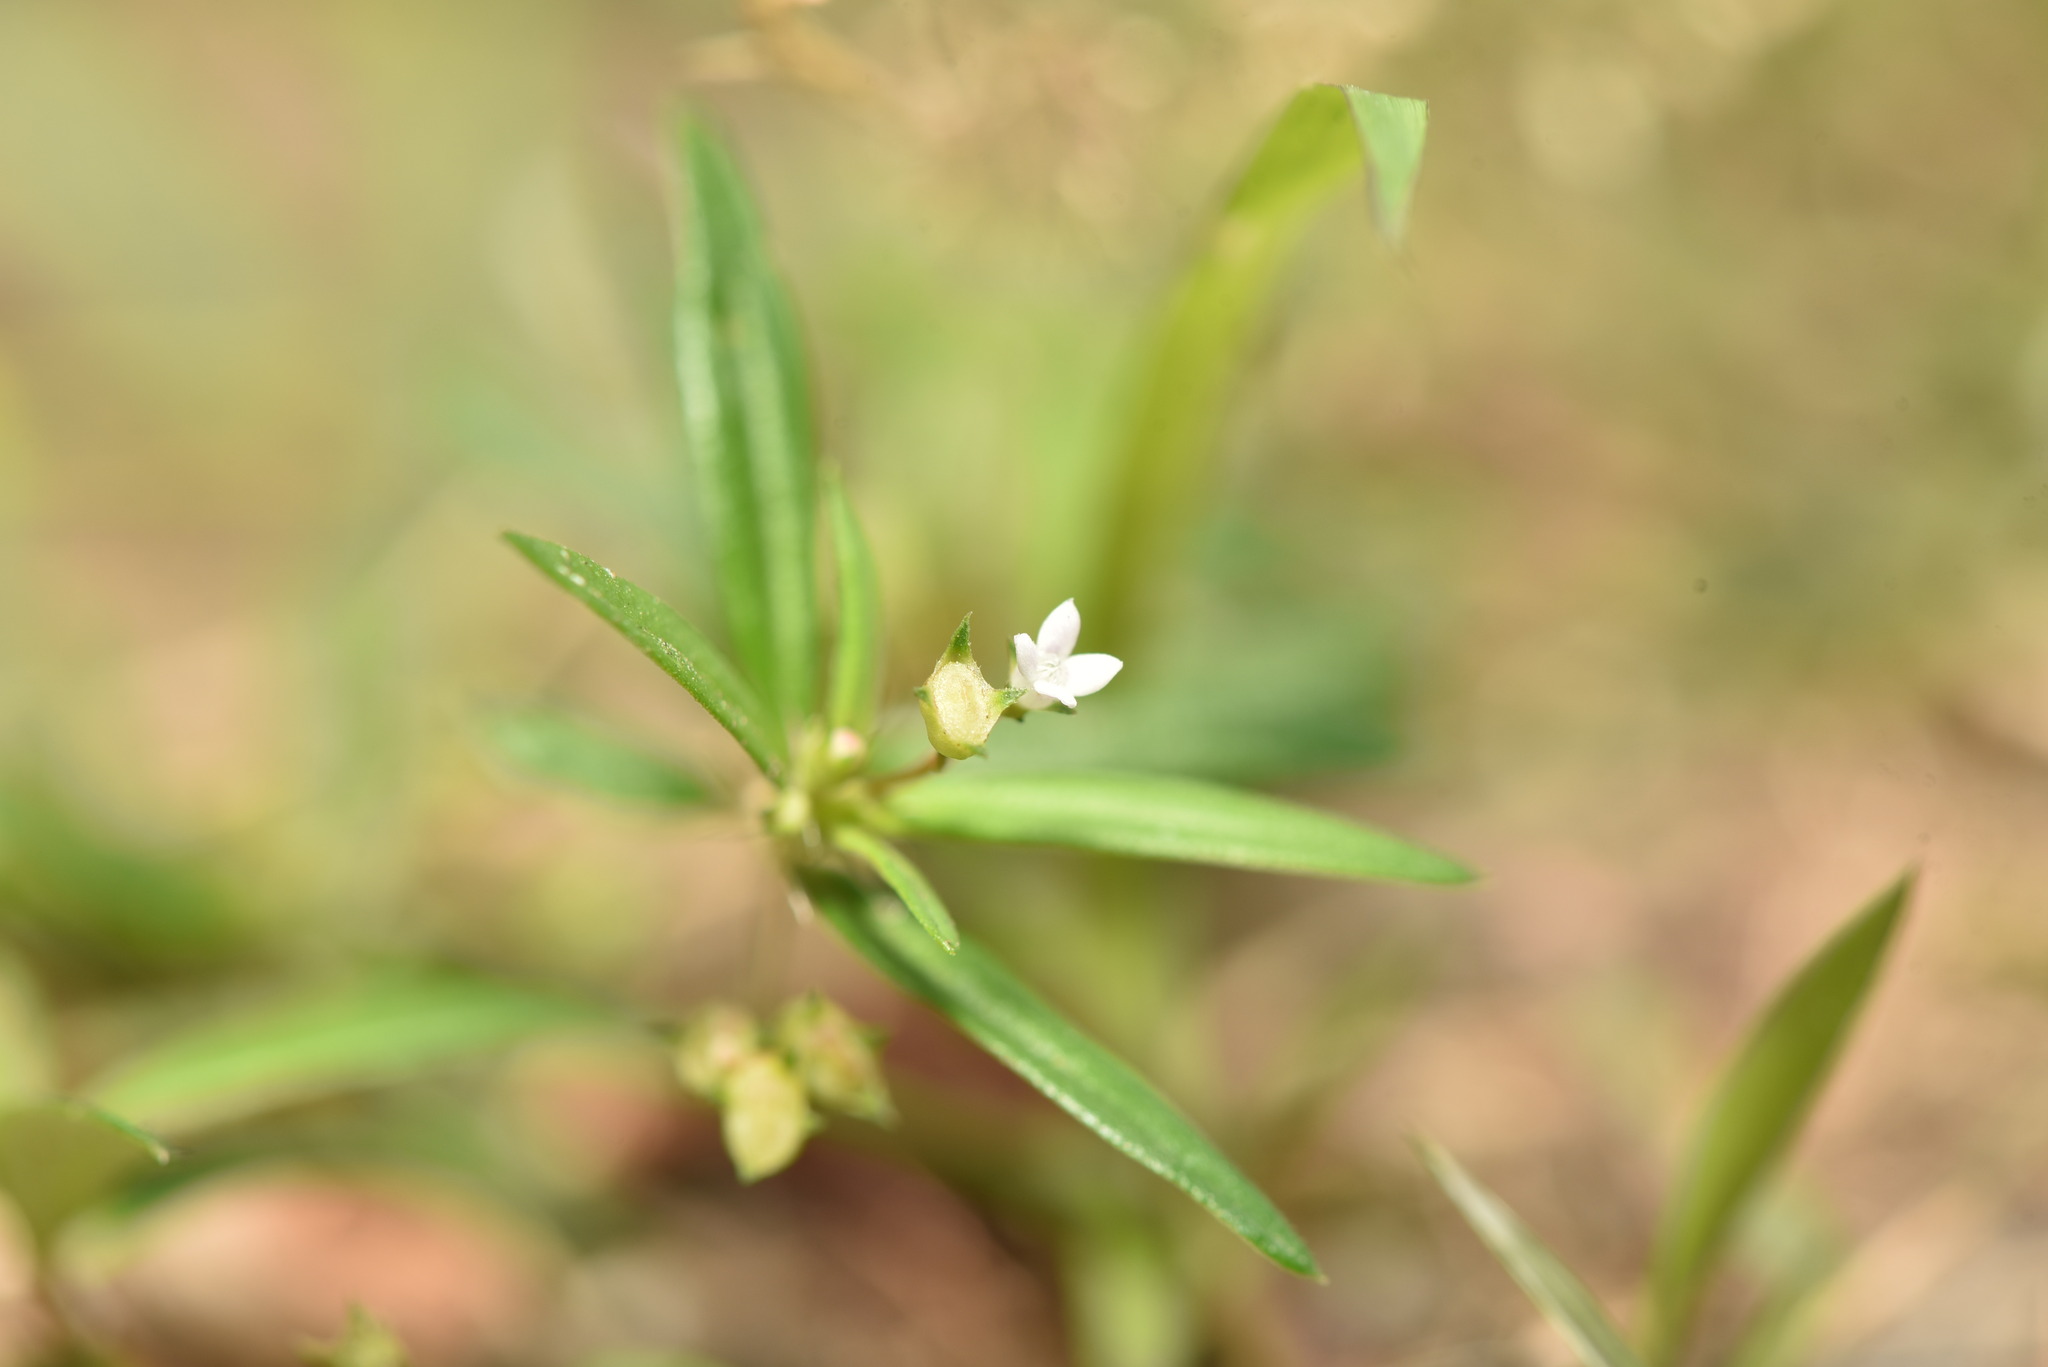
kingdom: Plantae
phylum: Tracheophyta
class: Magnoliopsida
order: Gentianales
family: Rubiaceae
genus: Oldenlandia
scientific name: Oldenlandia corymbosa
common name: Flat-top mille graines
